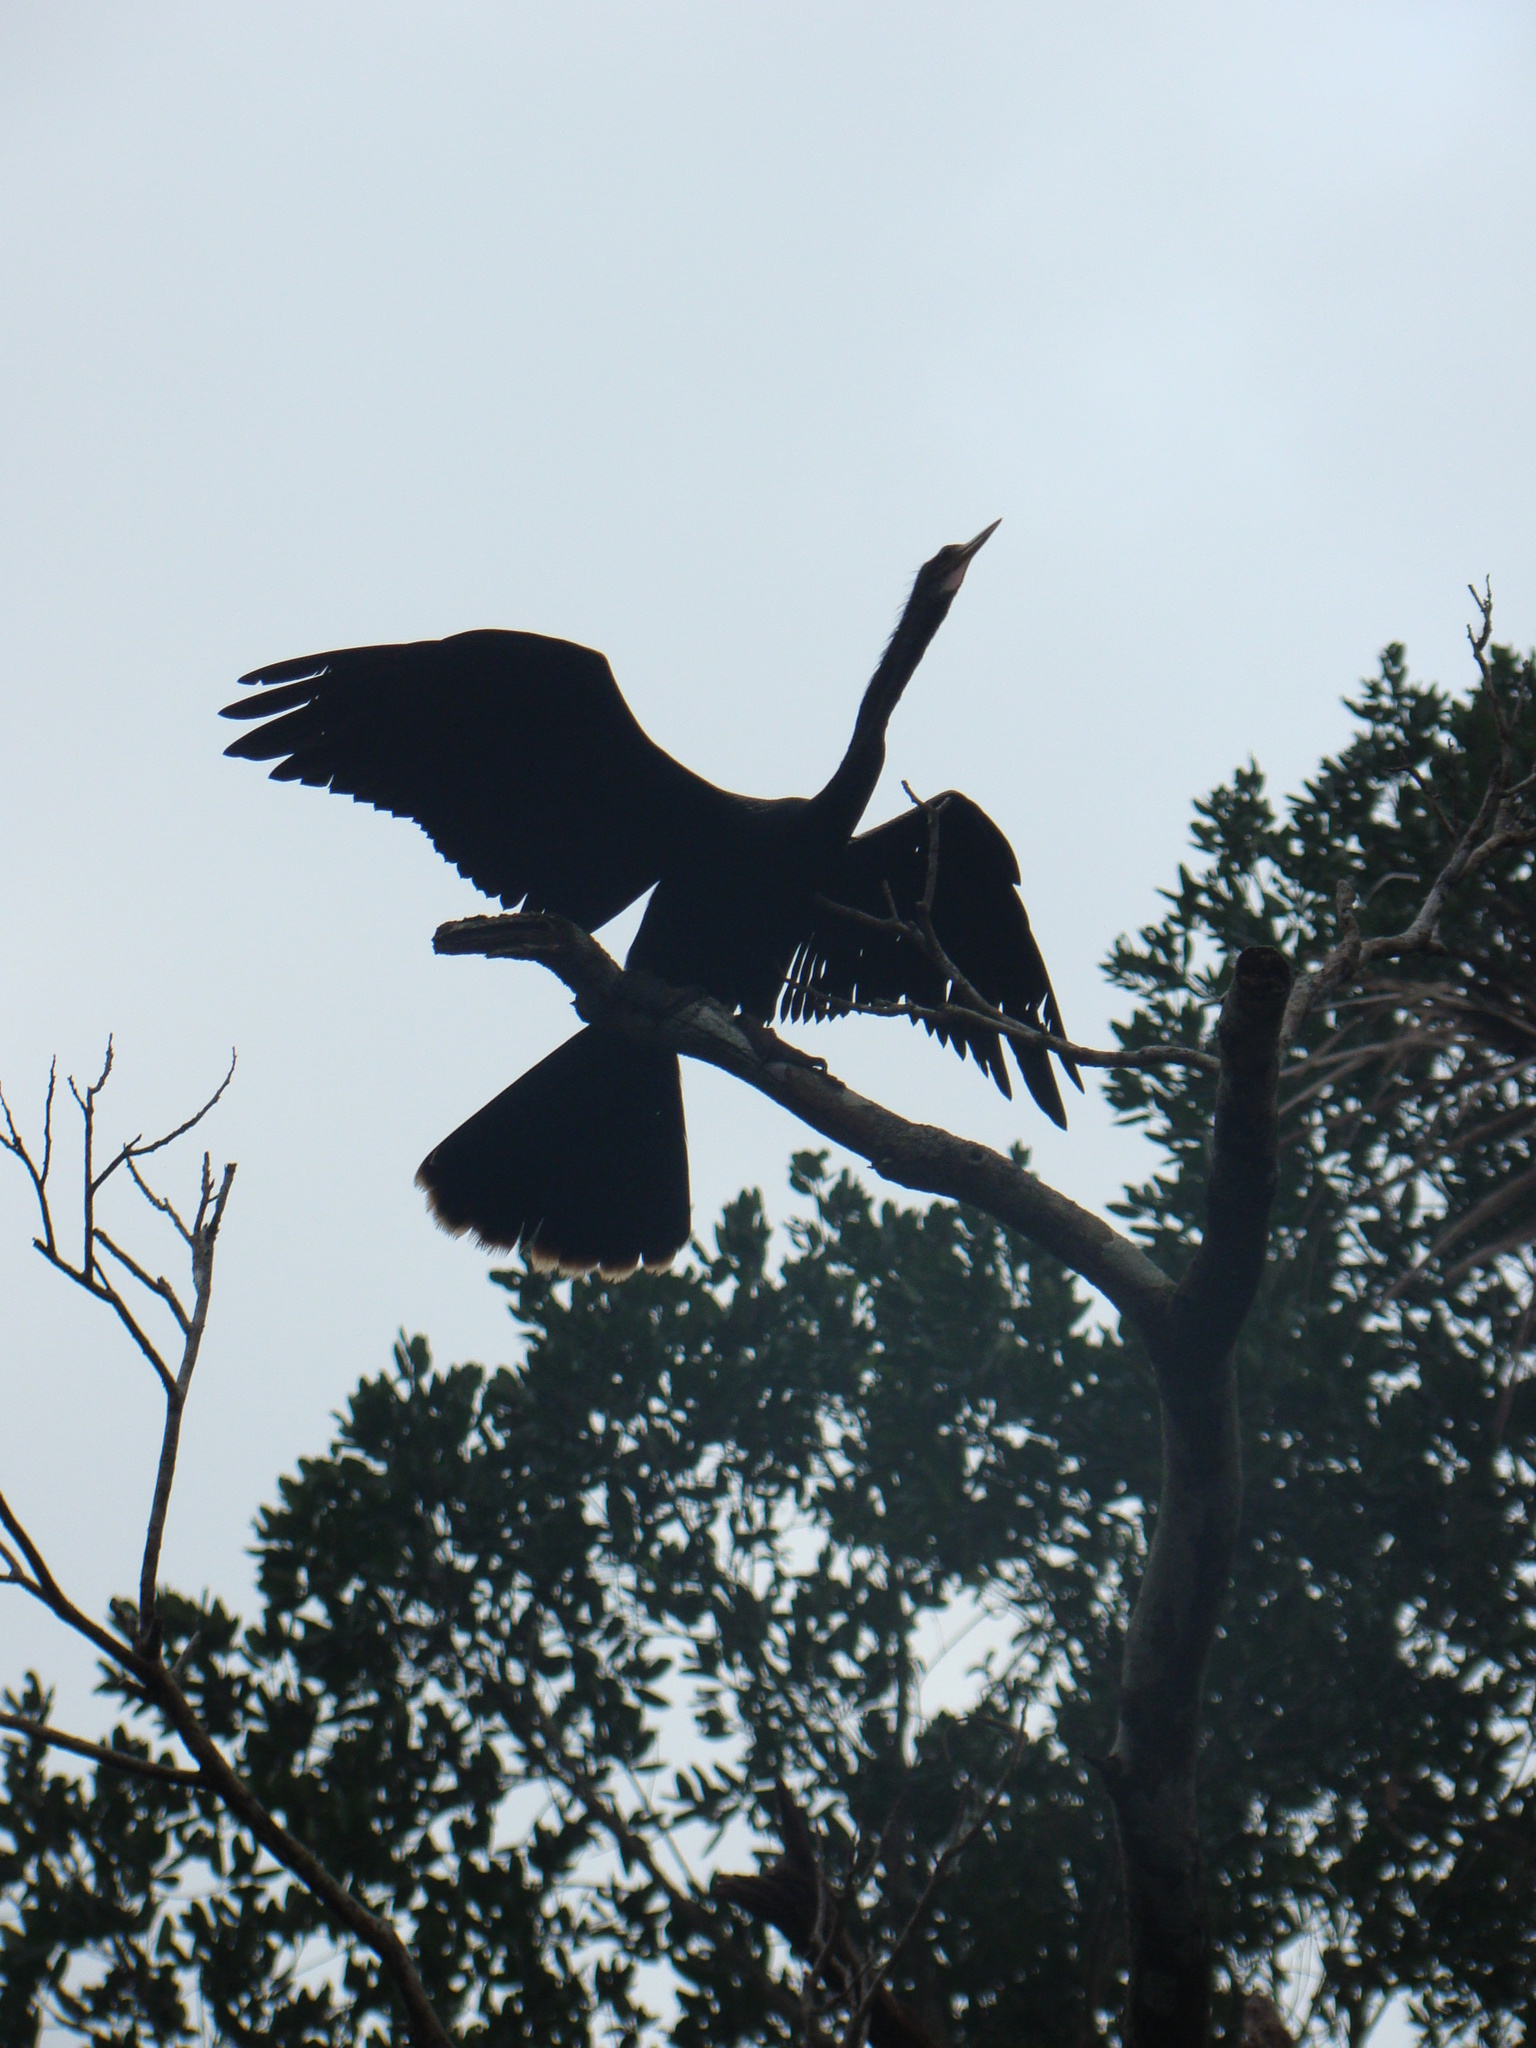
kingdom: Animalia
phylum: Chordata
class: Aves
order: Suliformes
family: Anhingidae
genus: Anhinga
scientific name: Anhinga anhinga
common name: Anhinga
